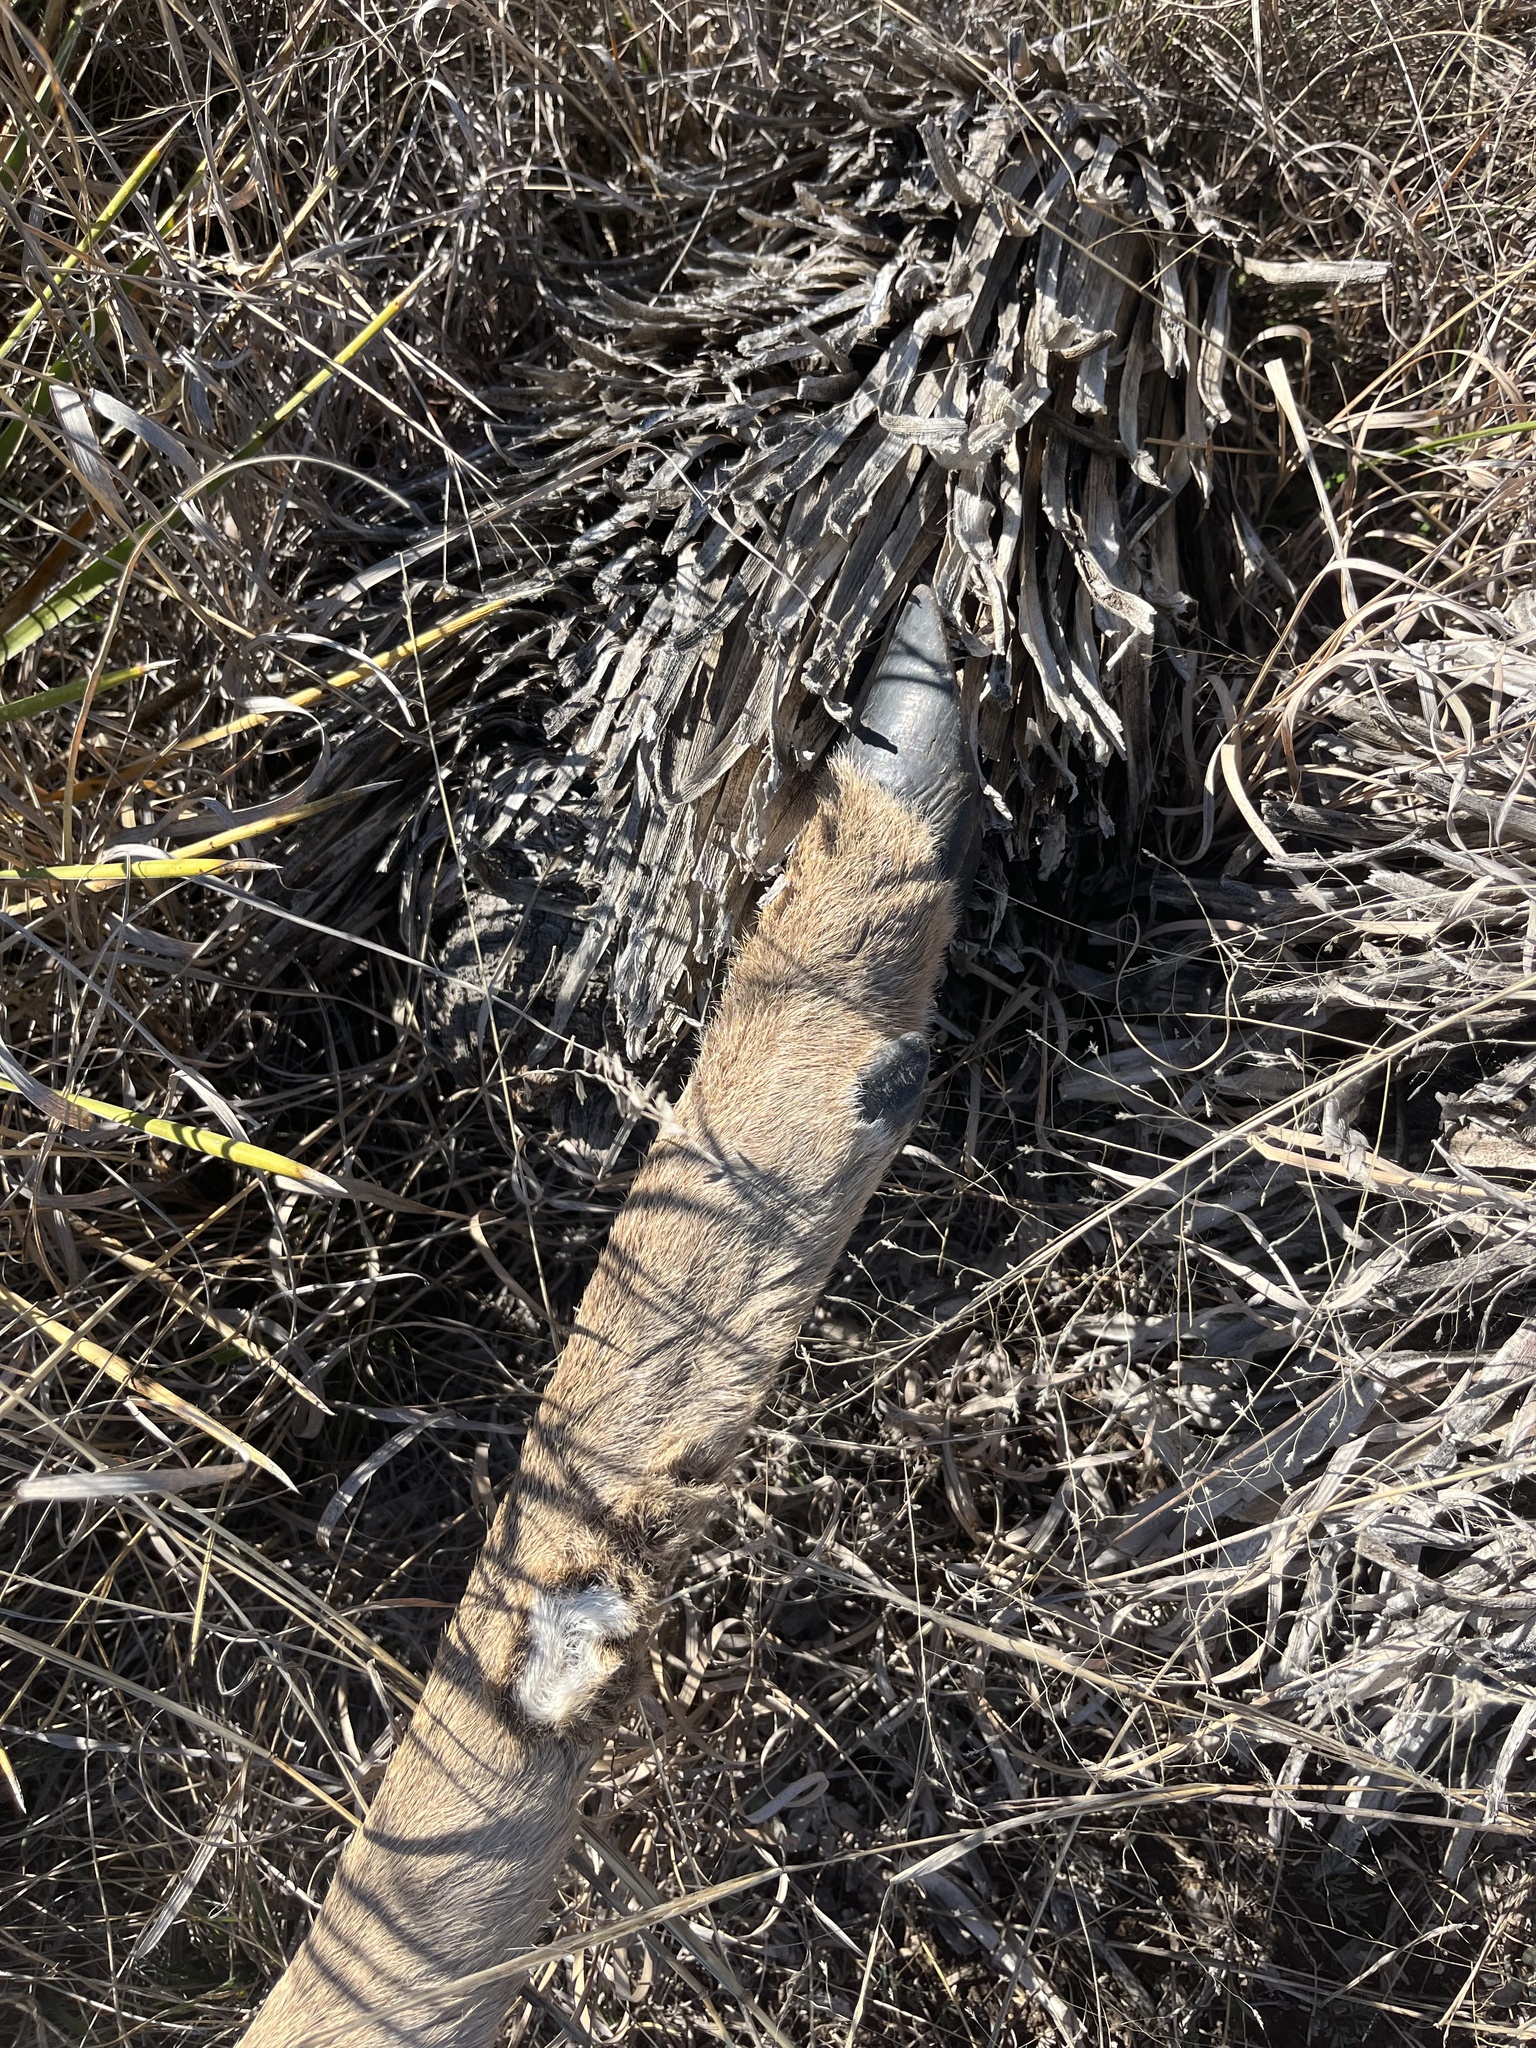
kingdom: Animalia
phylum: Chordata
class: Mammalia
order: Artiodactyla
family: Cervidae
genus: Odocoileus
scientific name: Odocoileus virginianus
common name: White-tailed deer
